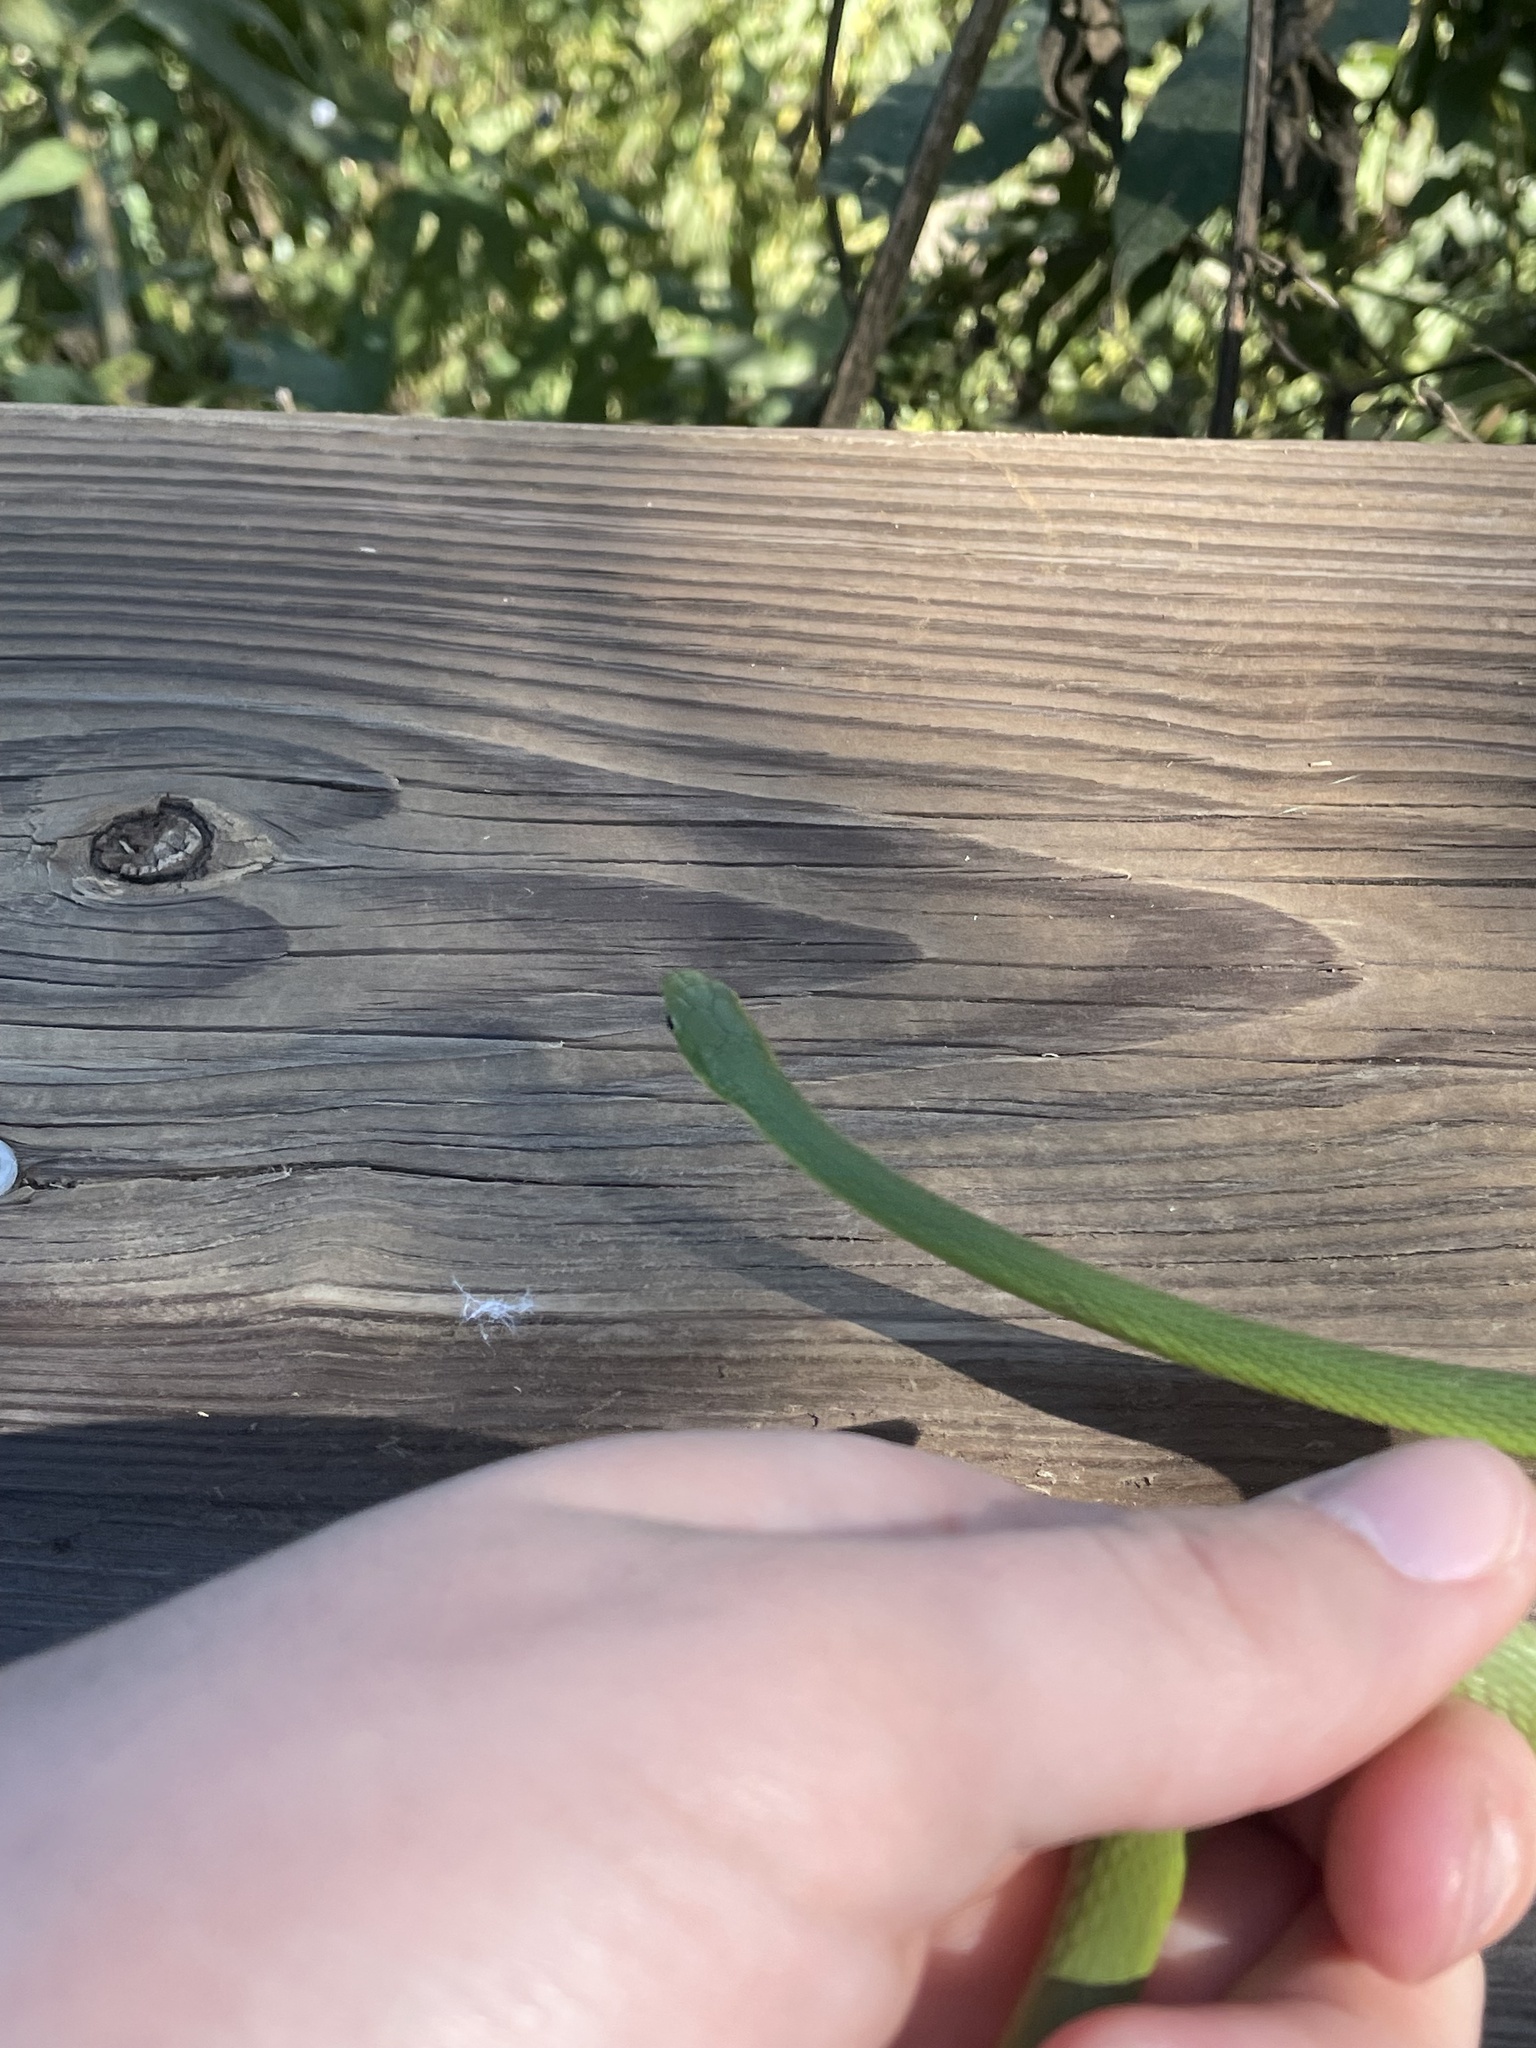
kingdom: Animalia
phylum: Chordata
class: Squamata
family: Colubridae
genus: Opheodrys
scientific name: Opheodrys aestivus
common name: Rough greensnake
